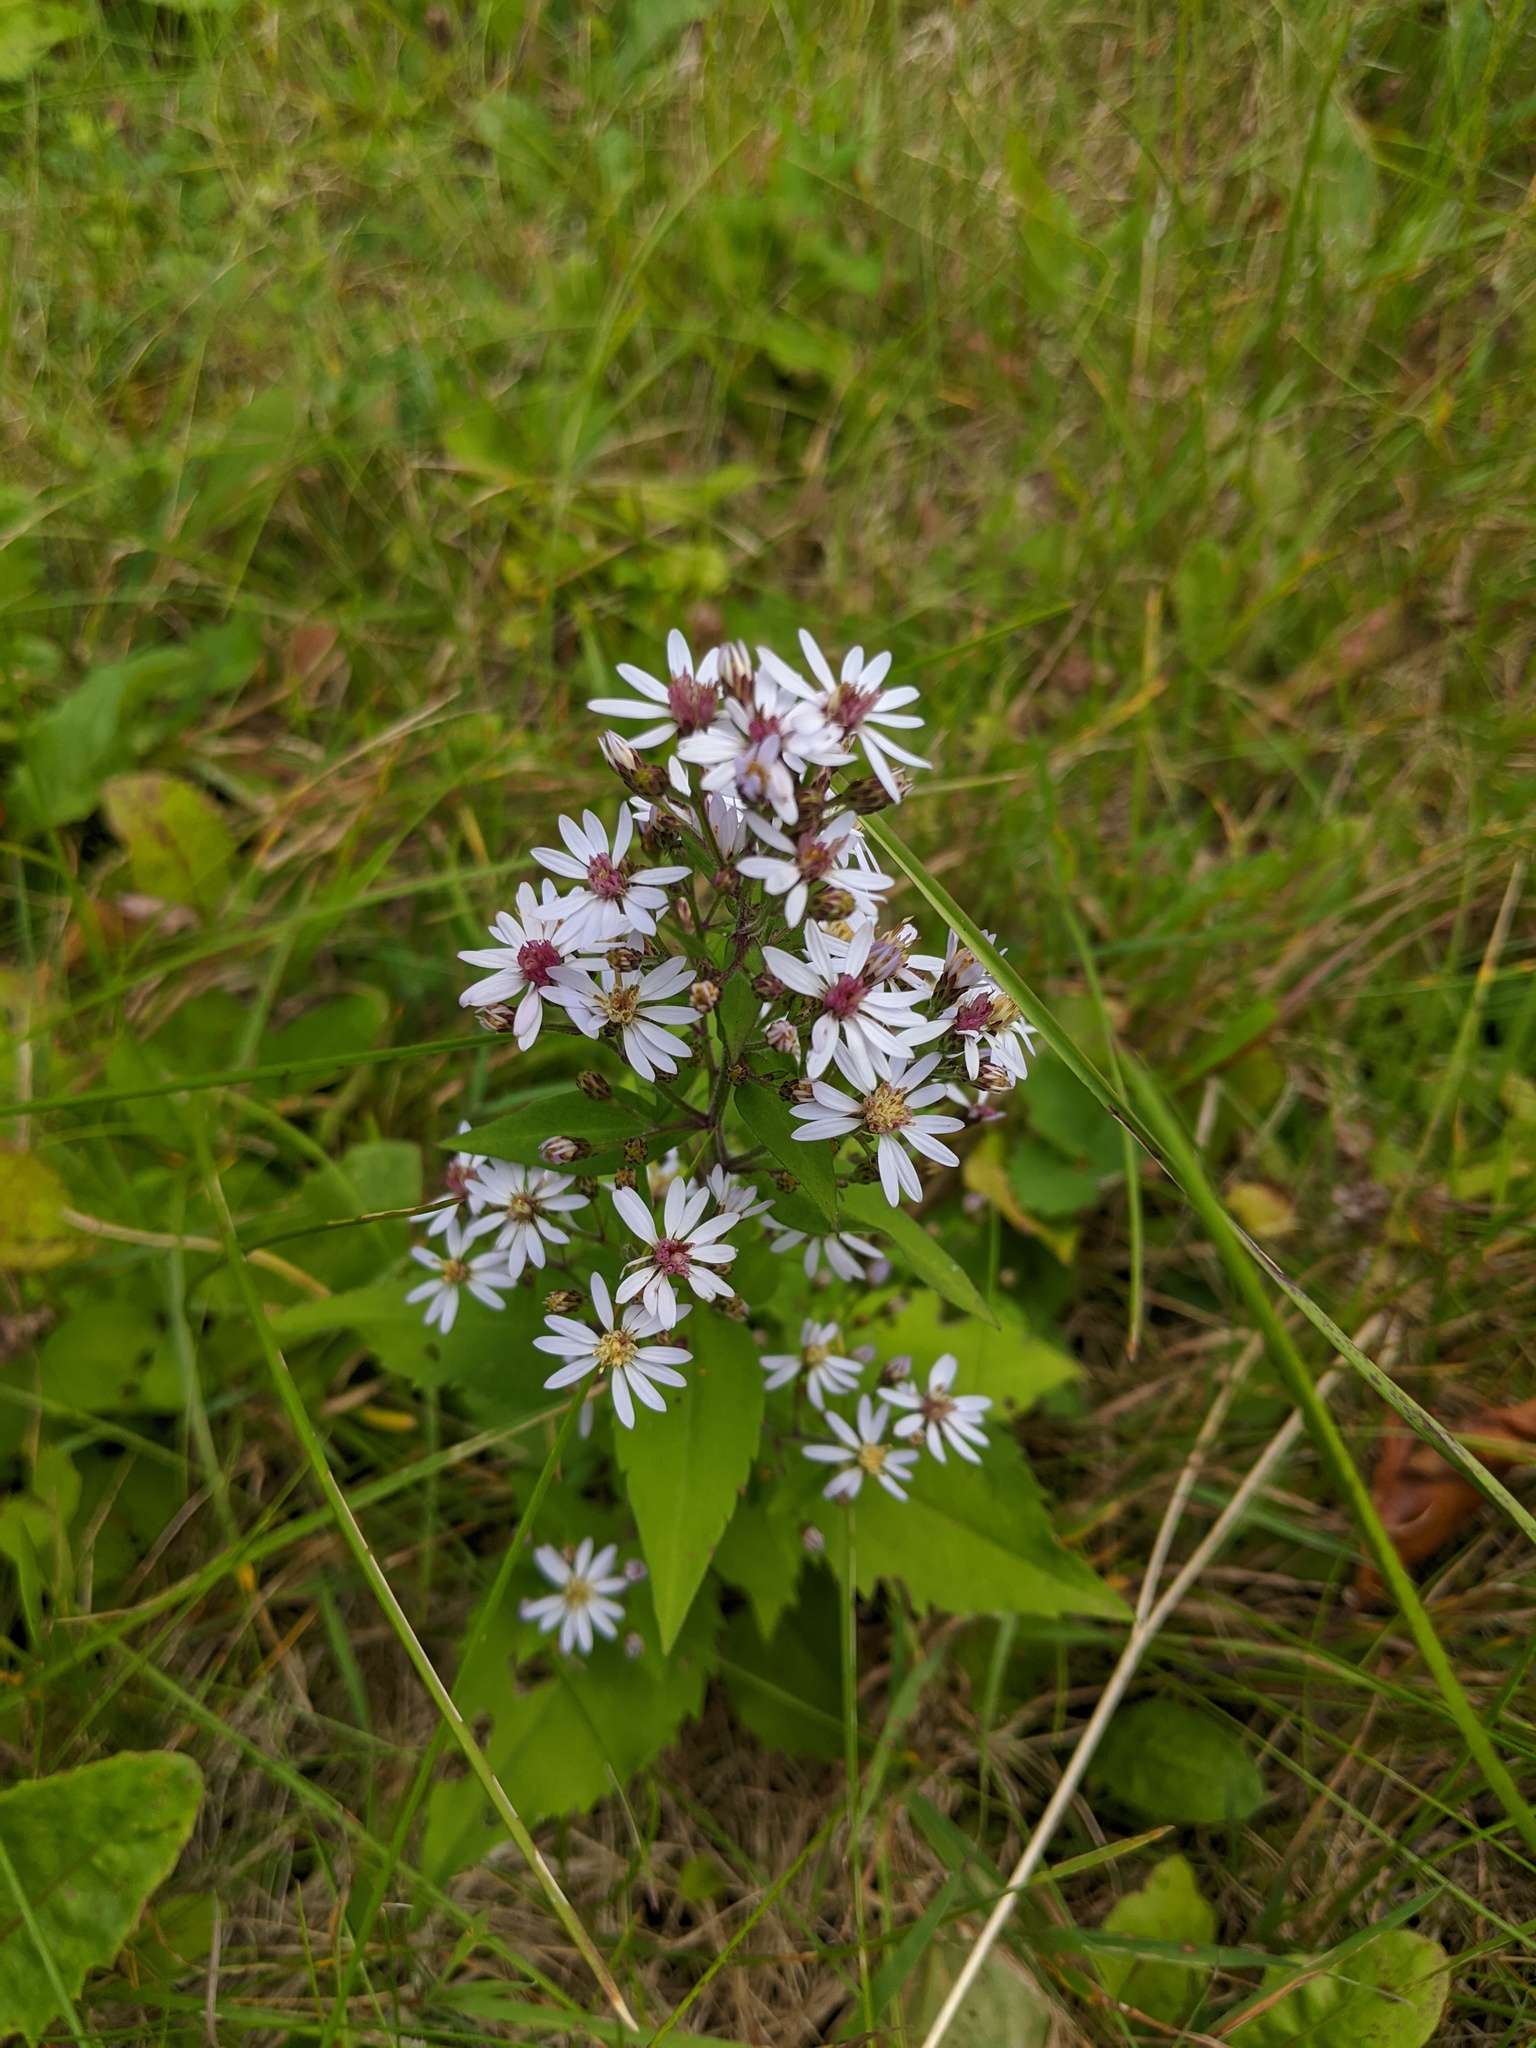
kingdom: Plantae
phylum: Tracheophyta
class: Magnoliopsida
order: Asterales
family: Asteraceae
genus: Symphyotrichum
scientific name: Symphyotrichum cordifolium
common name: Beeweed
